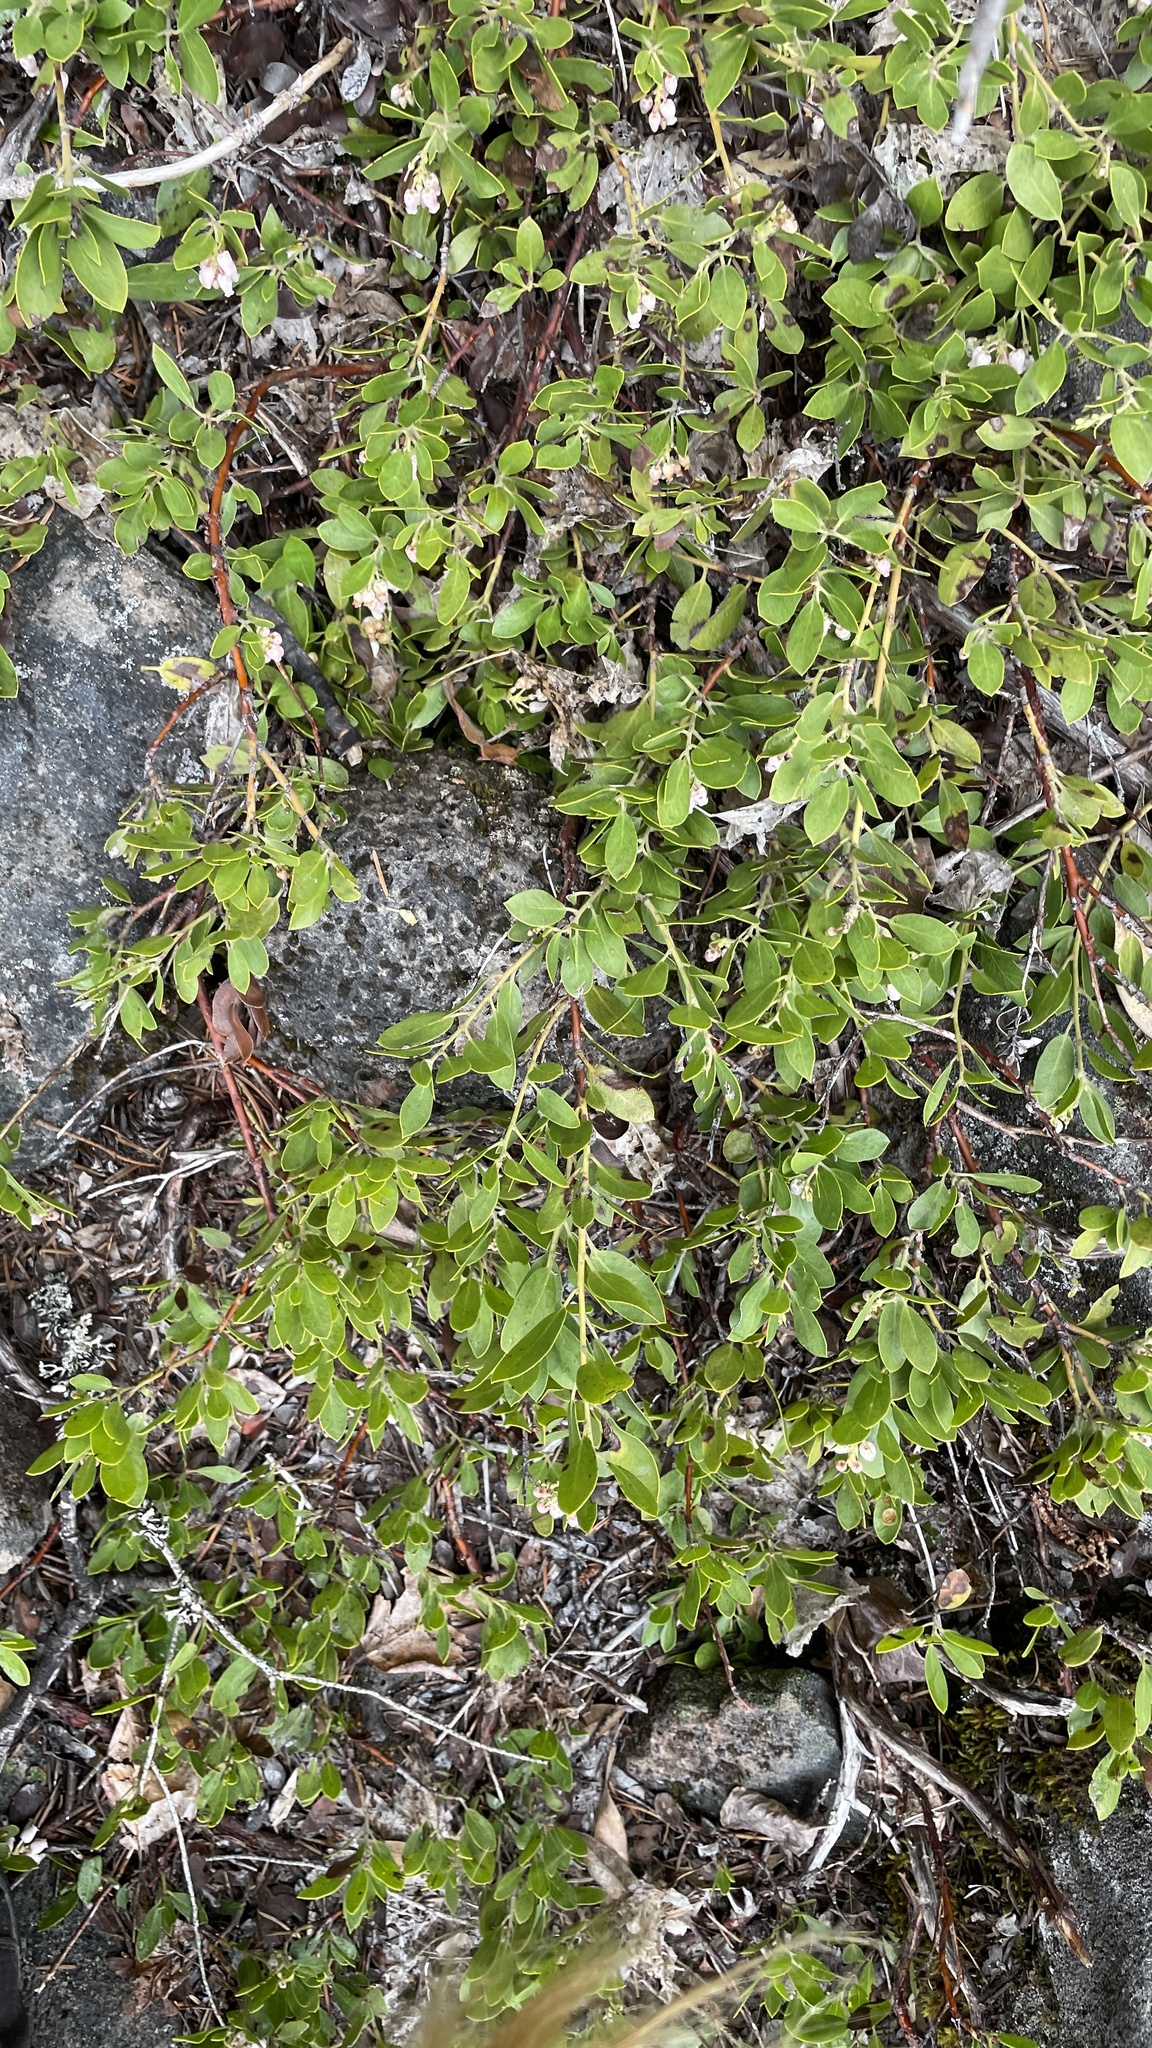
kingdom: Plantae
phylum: Tracheophyta
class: Magnoliopsida
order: Ericales
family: Ericaceae
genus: Arctostaphylos
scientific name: Arctostaphylos nevadensis
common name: Pinemat manzanita
